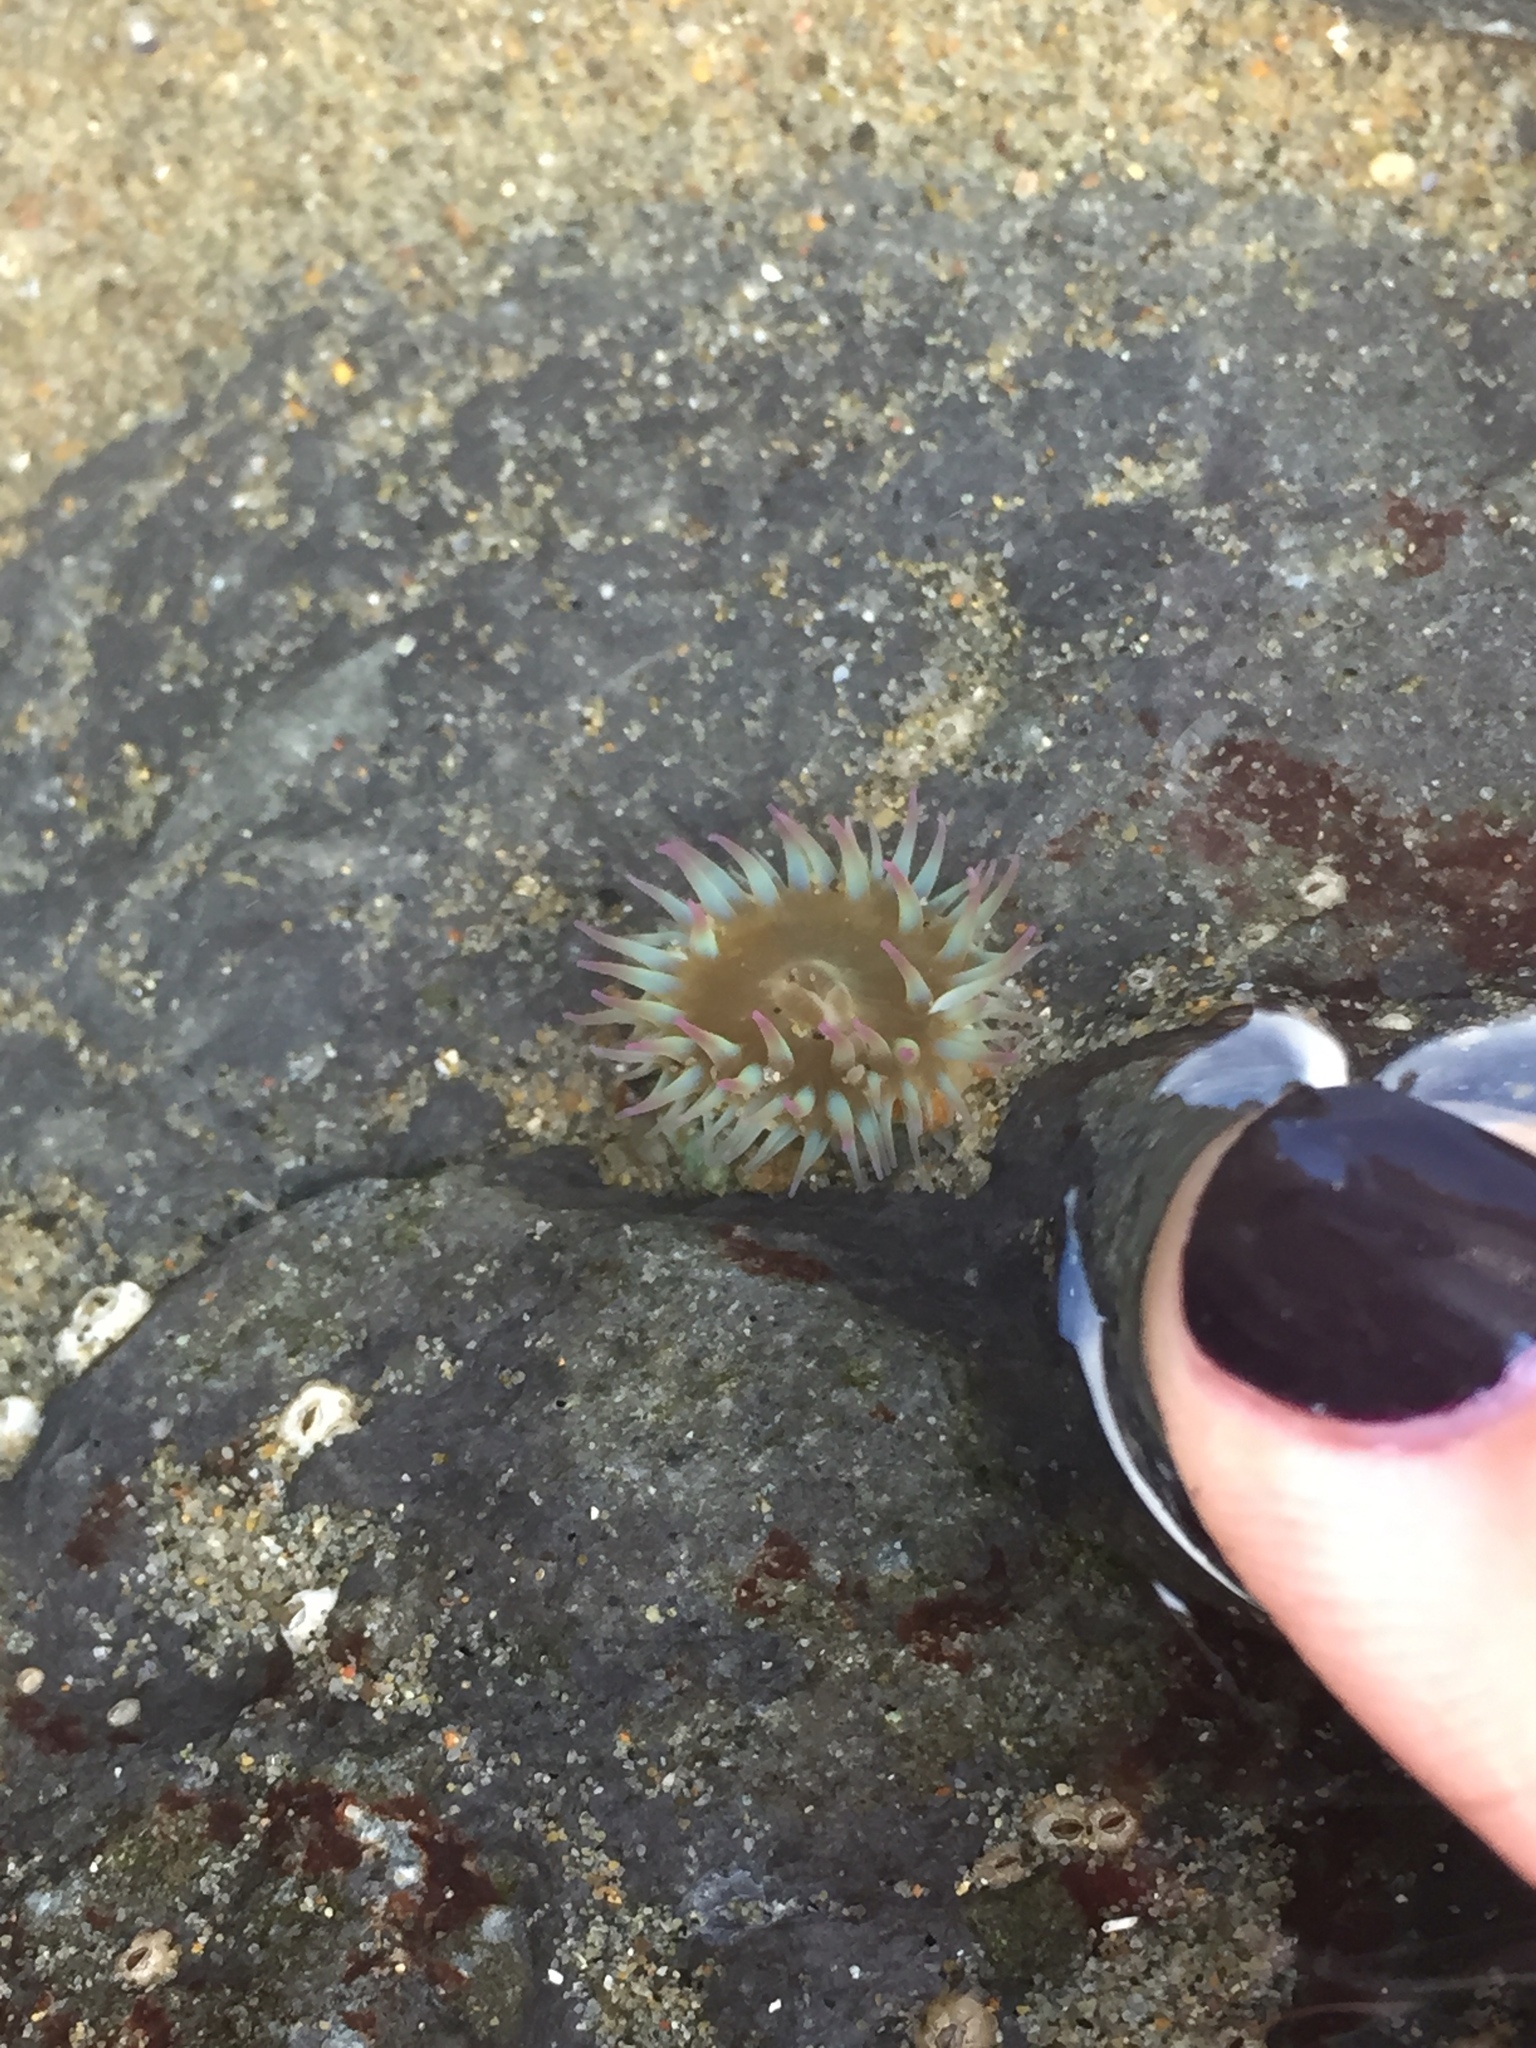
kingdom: Animalia
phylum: Cnidaria
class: Anthozoa
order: Actiniaria
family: Actiniidae
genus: Anthopleura
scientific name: Anthopleura elegantissima
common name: Clonal anemone
